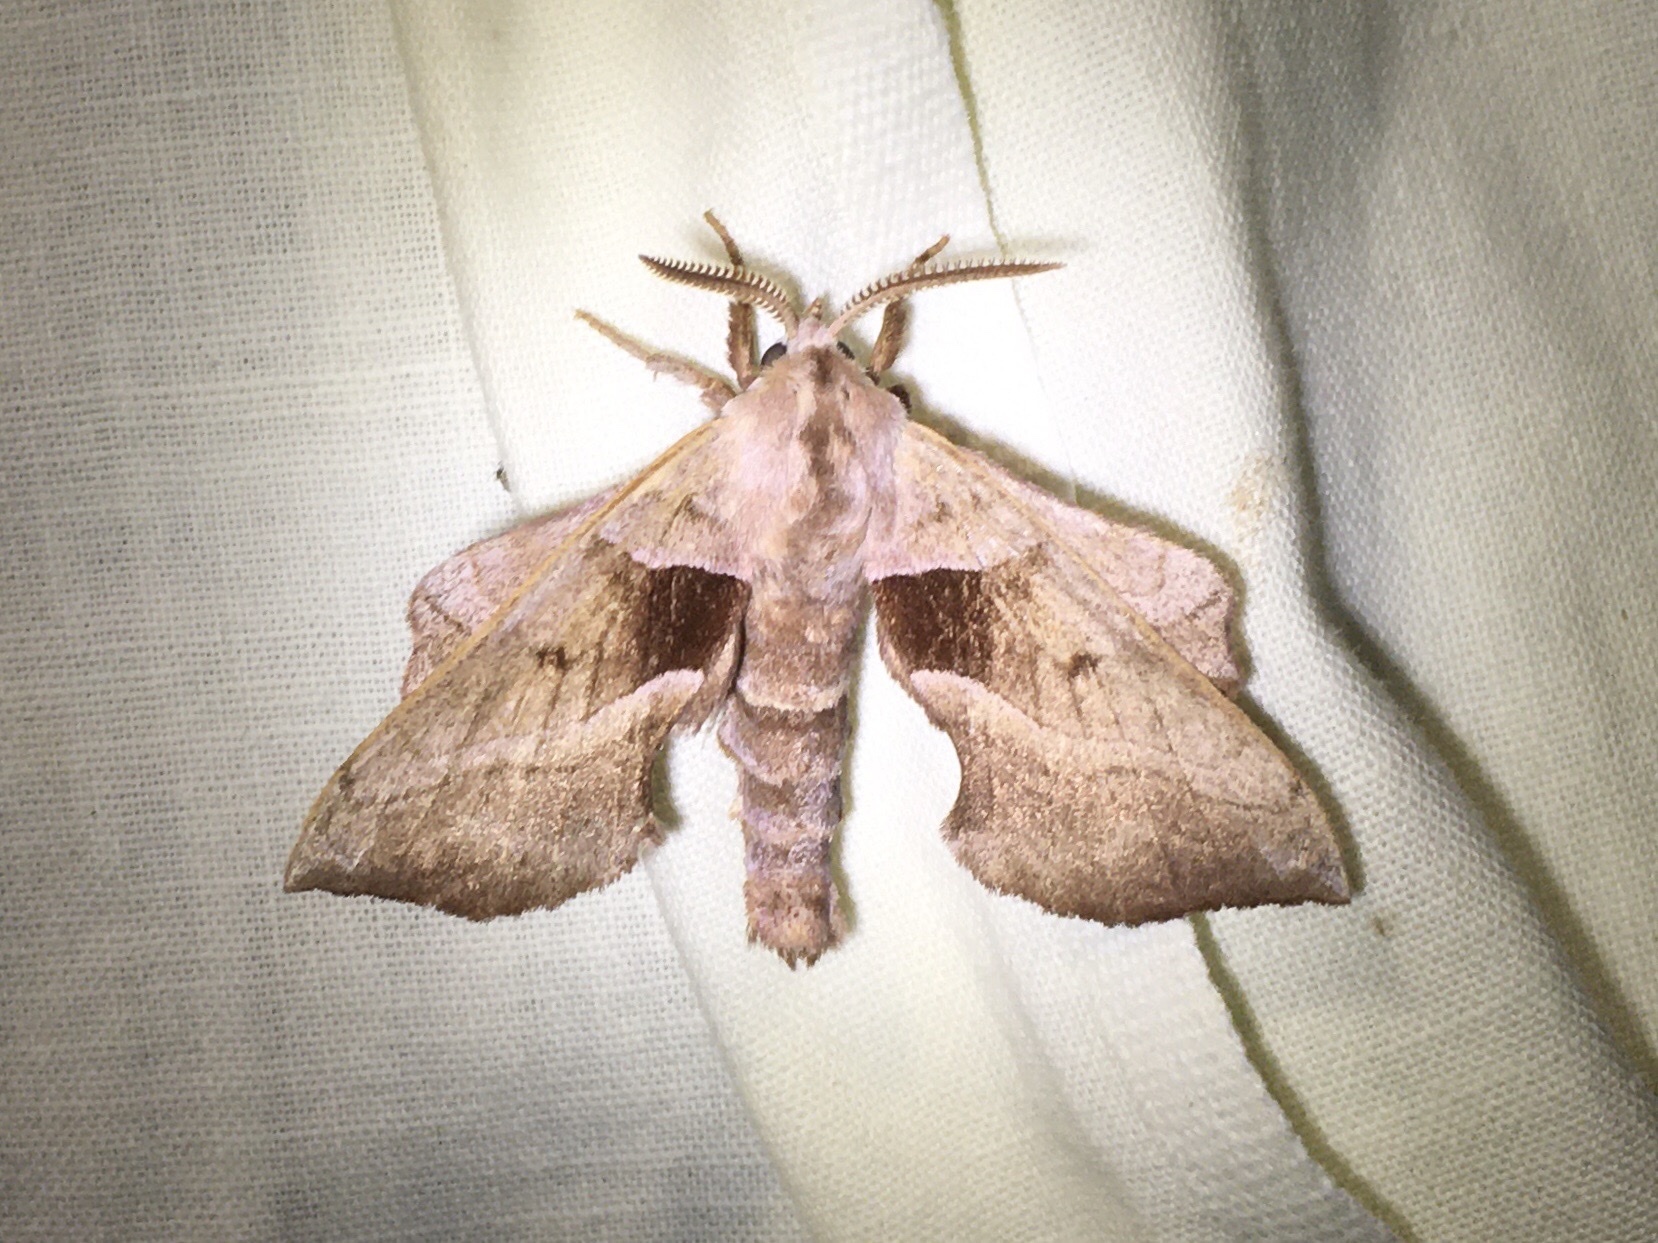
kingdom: Animalia
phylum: Arthropoda
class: Insecta
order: Lepidoptera
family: Sphingidae
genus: Amorpha
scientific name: Amorpha juglandis
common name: Walnut sphinx
